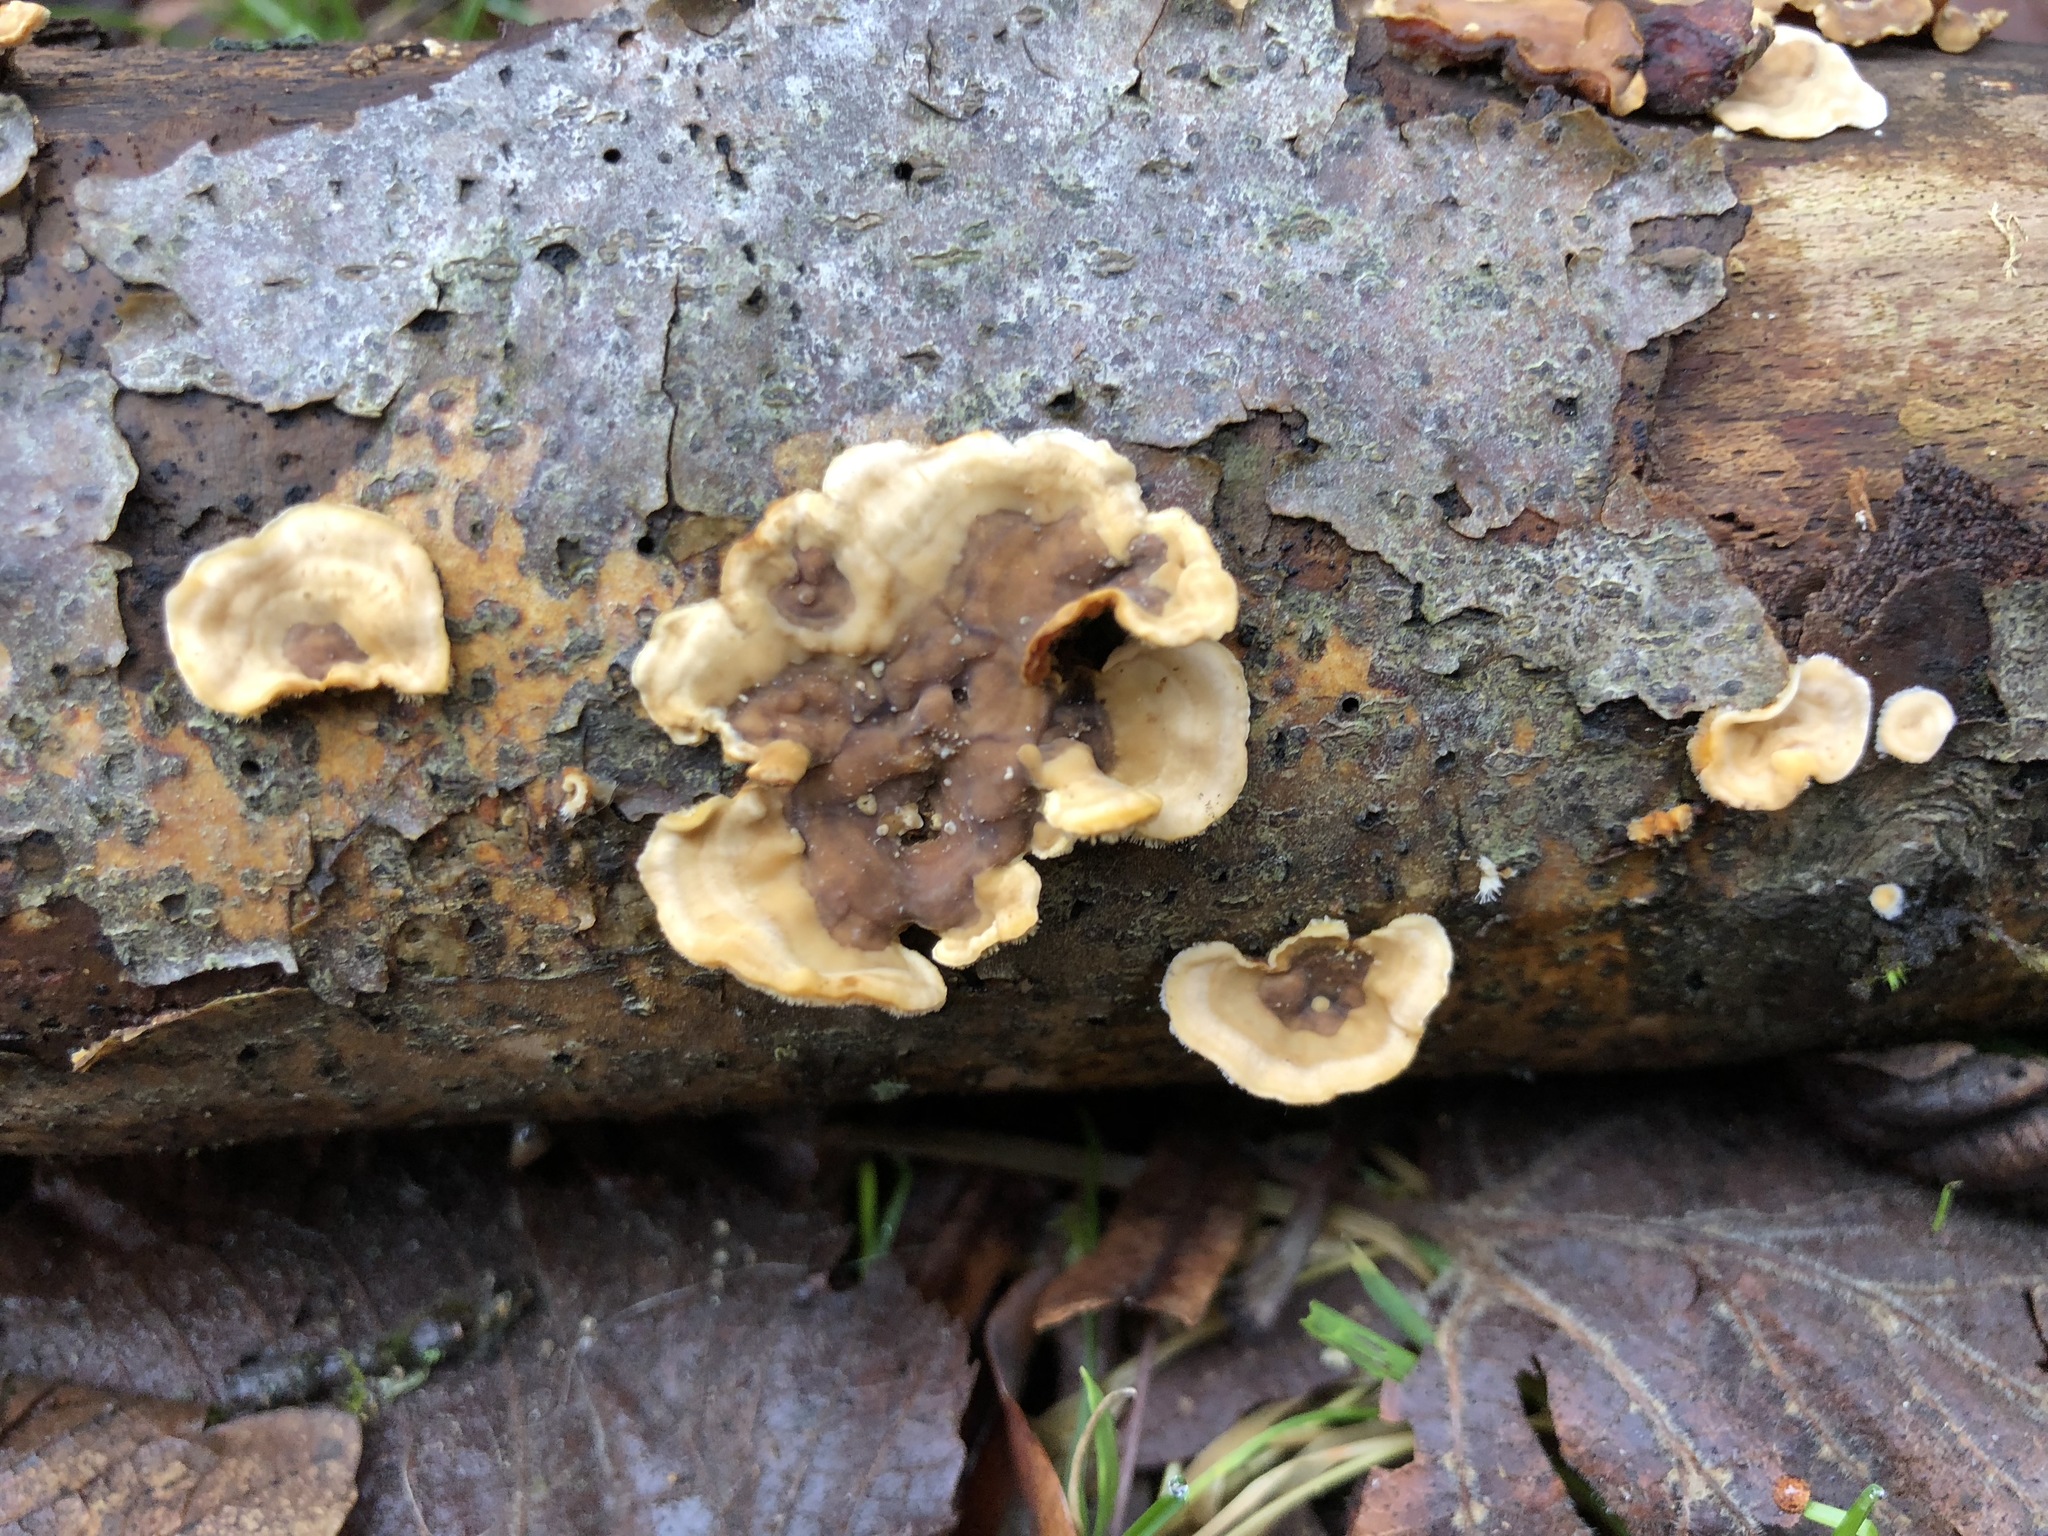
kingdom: Fungi
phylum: Basidiomycota
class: Agaricomycetes
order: Russulales
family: Stereaceae
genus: Stereum
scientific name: Stereum hirsutum
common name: Hairy curtain crust
